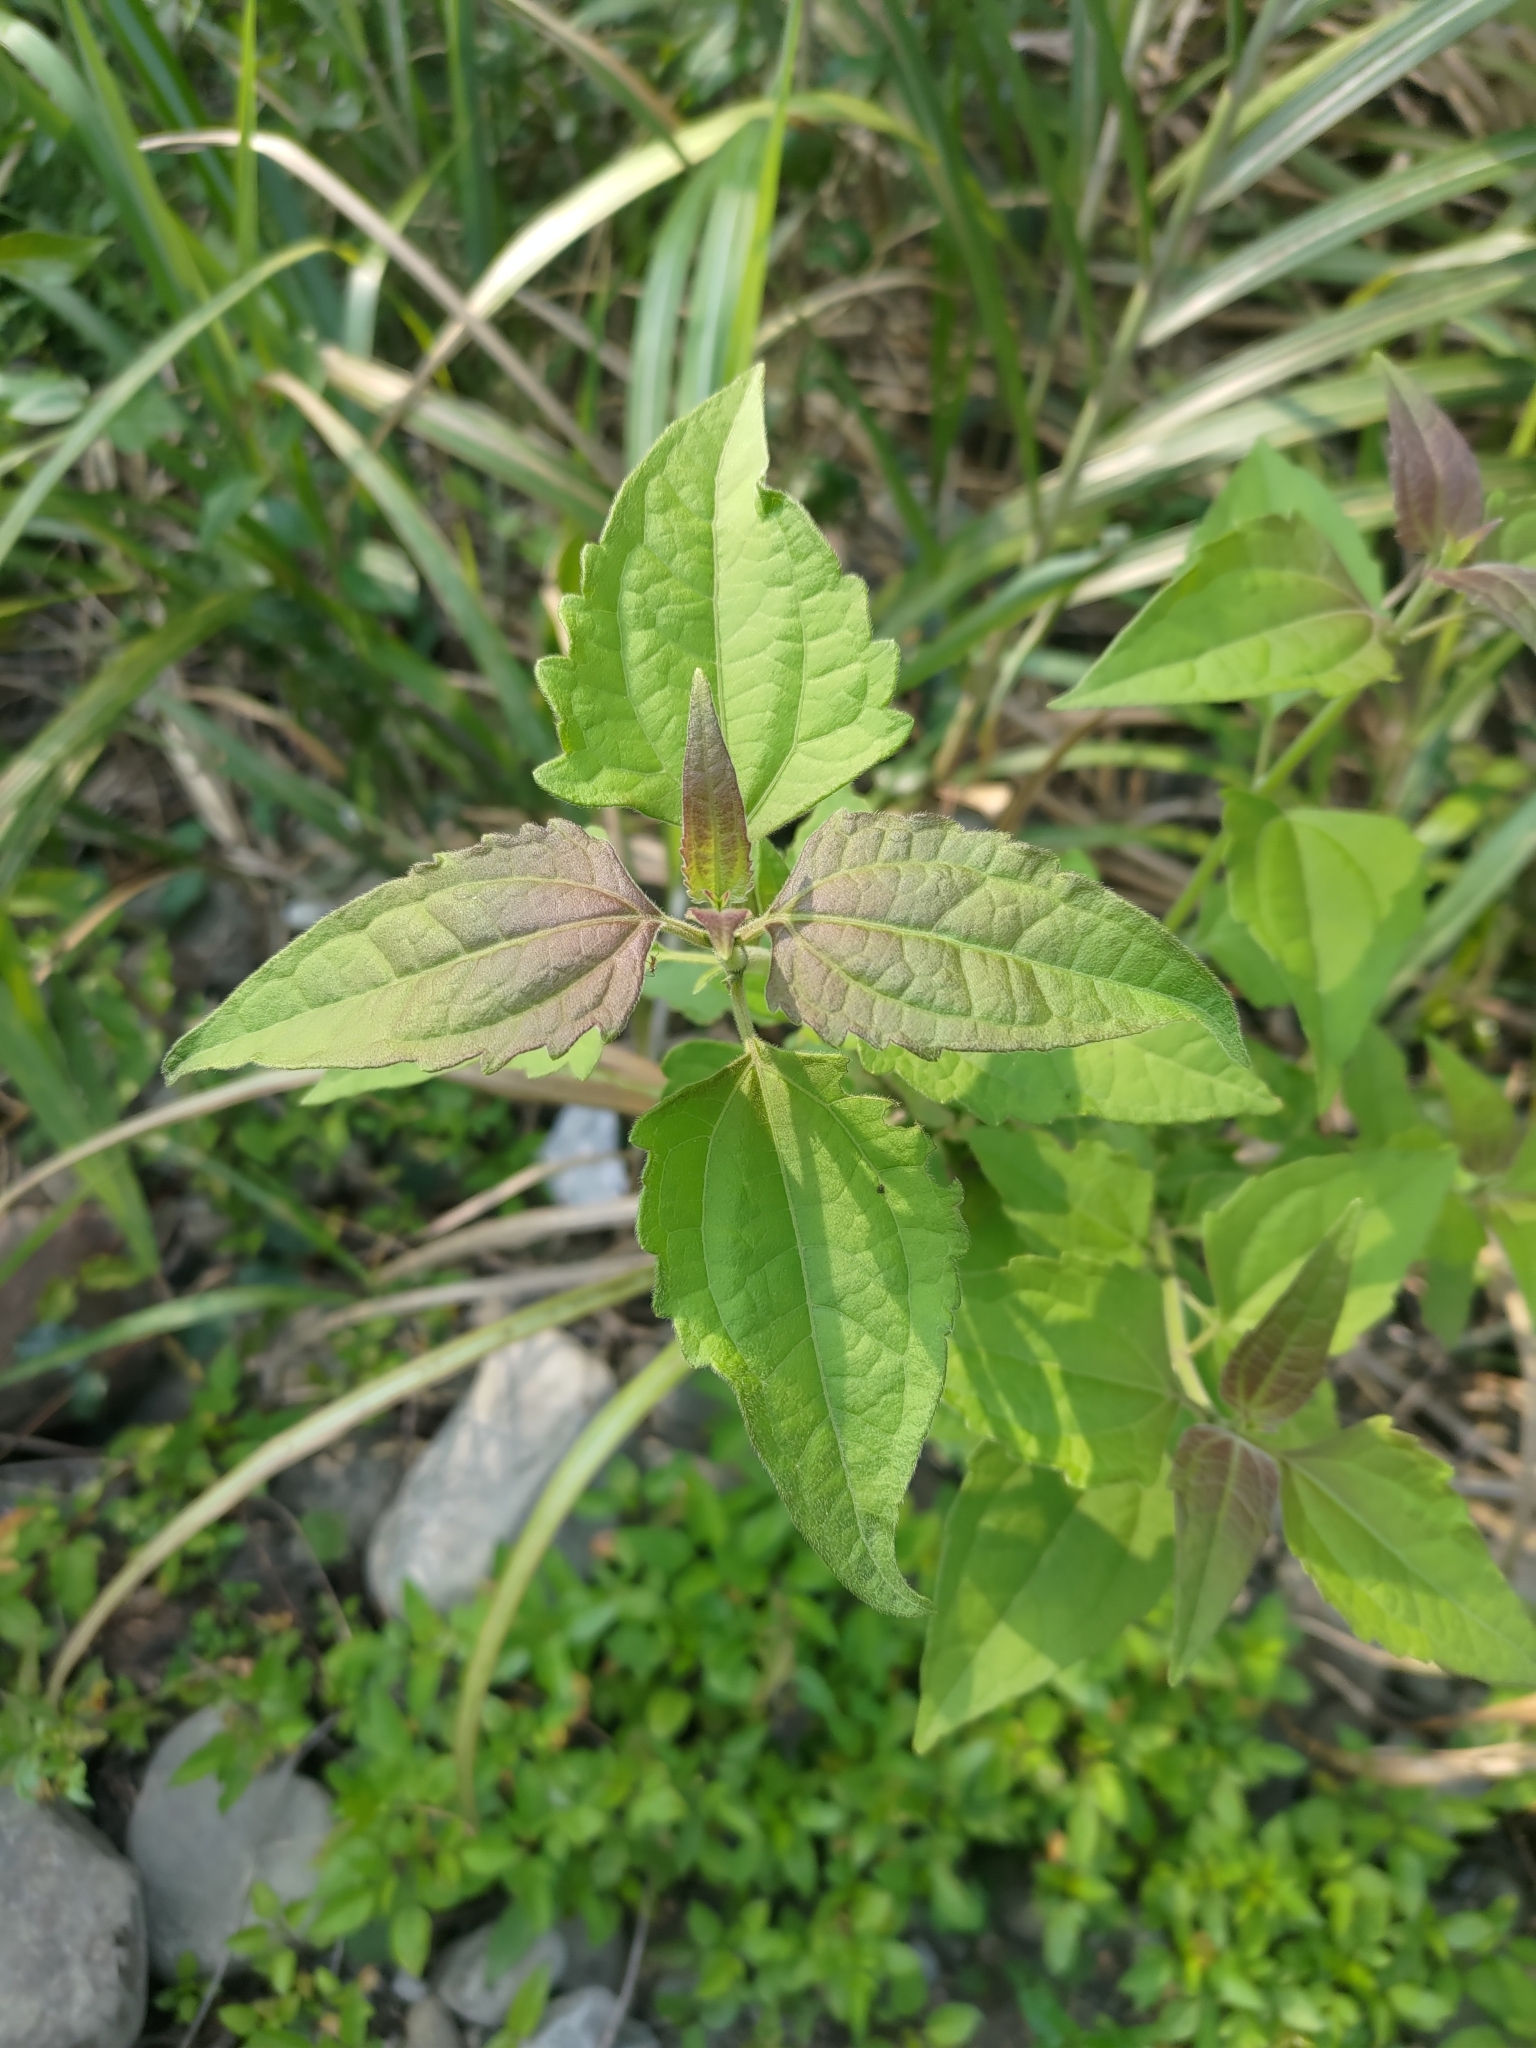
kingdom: Plantae
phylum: Tracheophyta
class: Magnoliopsida
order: Asterales
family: Asteraceae
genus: Chromolaena
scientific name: Chromolaena odorata
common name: Siamweed
